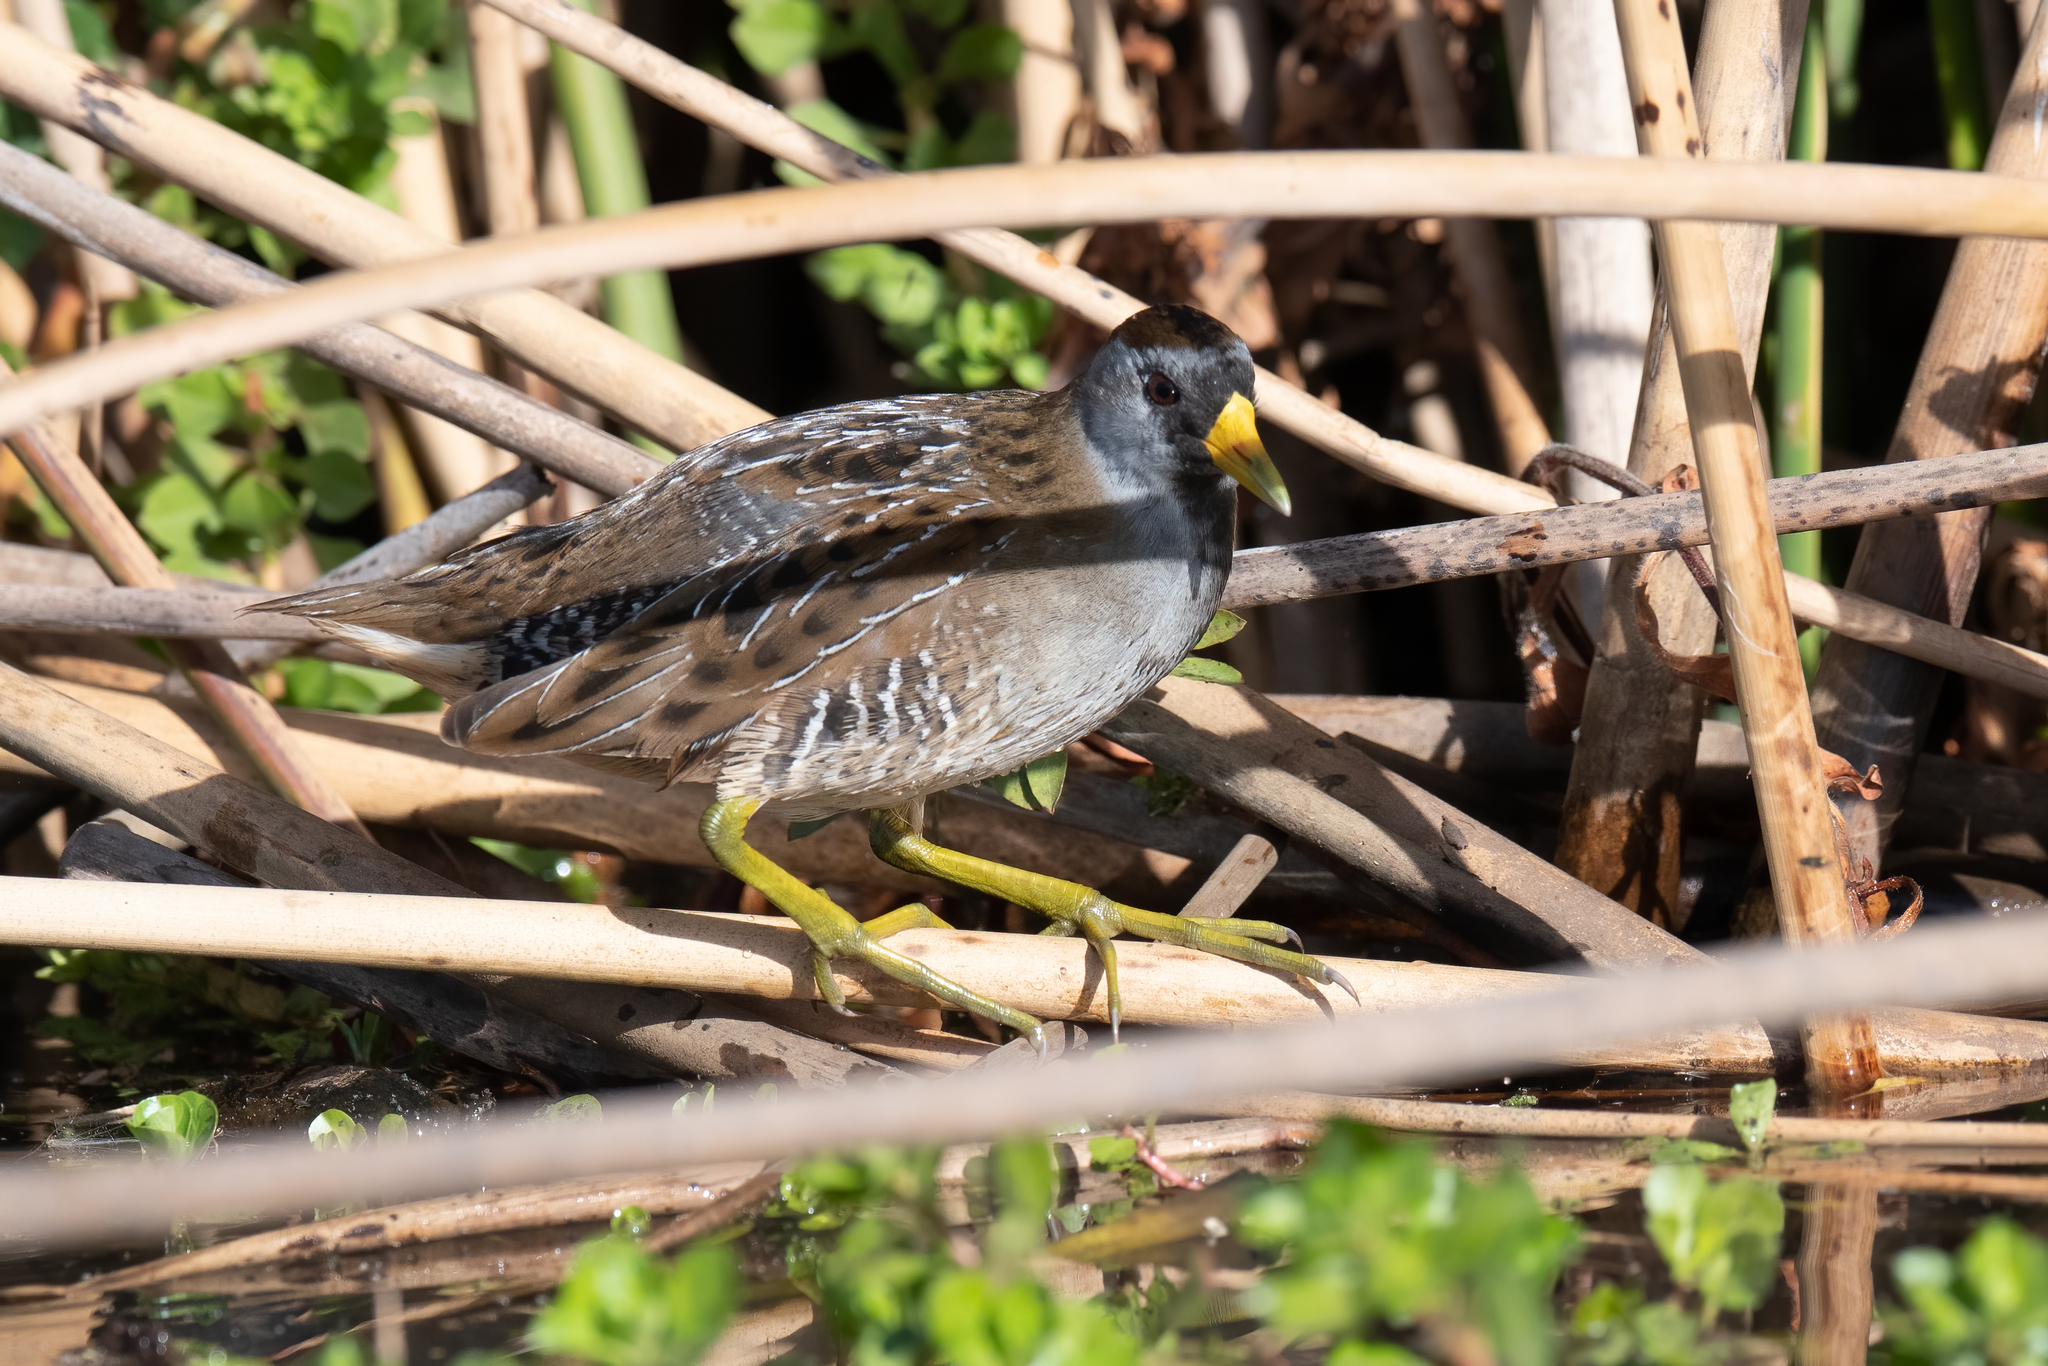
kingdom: Animalia
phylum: Chordata
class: Aves
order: Gruiformes
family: Rallidae
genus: Porzana
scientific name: Porzana carolina
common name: Sora
